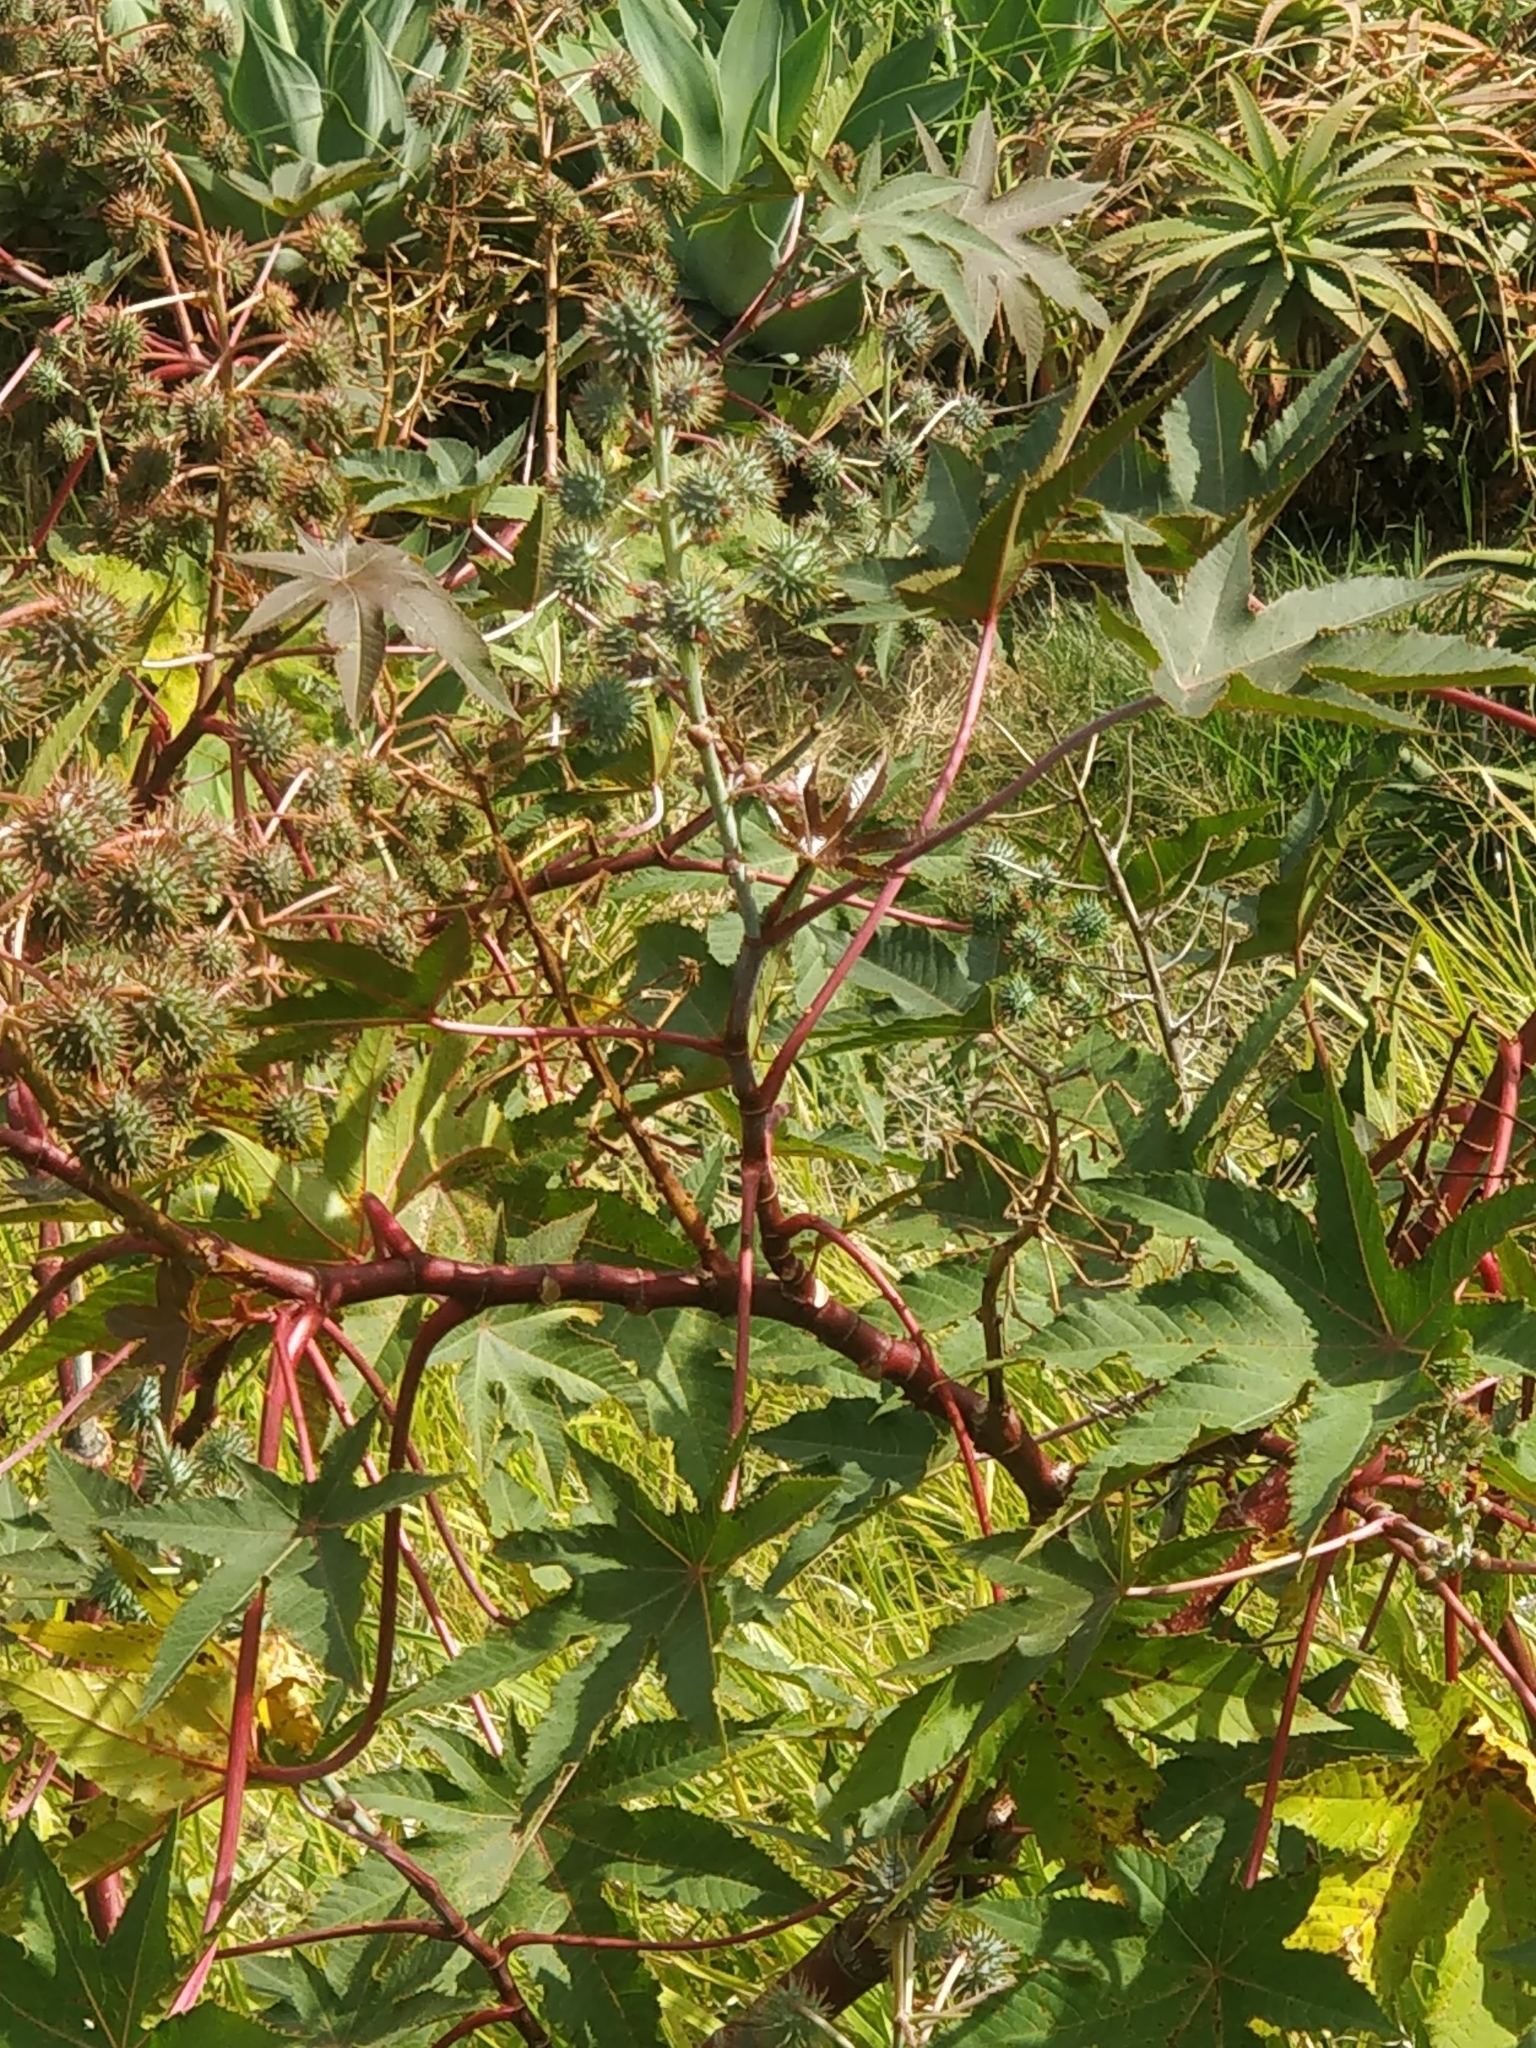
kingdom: Plantae
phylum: Tracheophyta
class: Magnoliopsida
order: Malpighiales
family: Euphorbiaceae
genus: Ricinus
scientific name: Ricinus communis
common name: Castor-oil-plant
